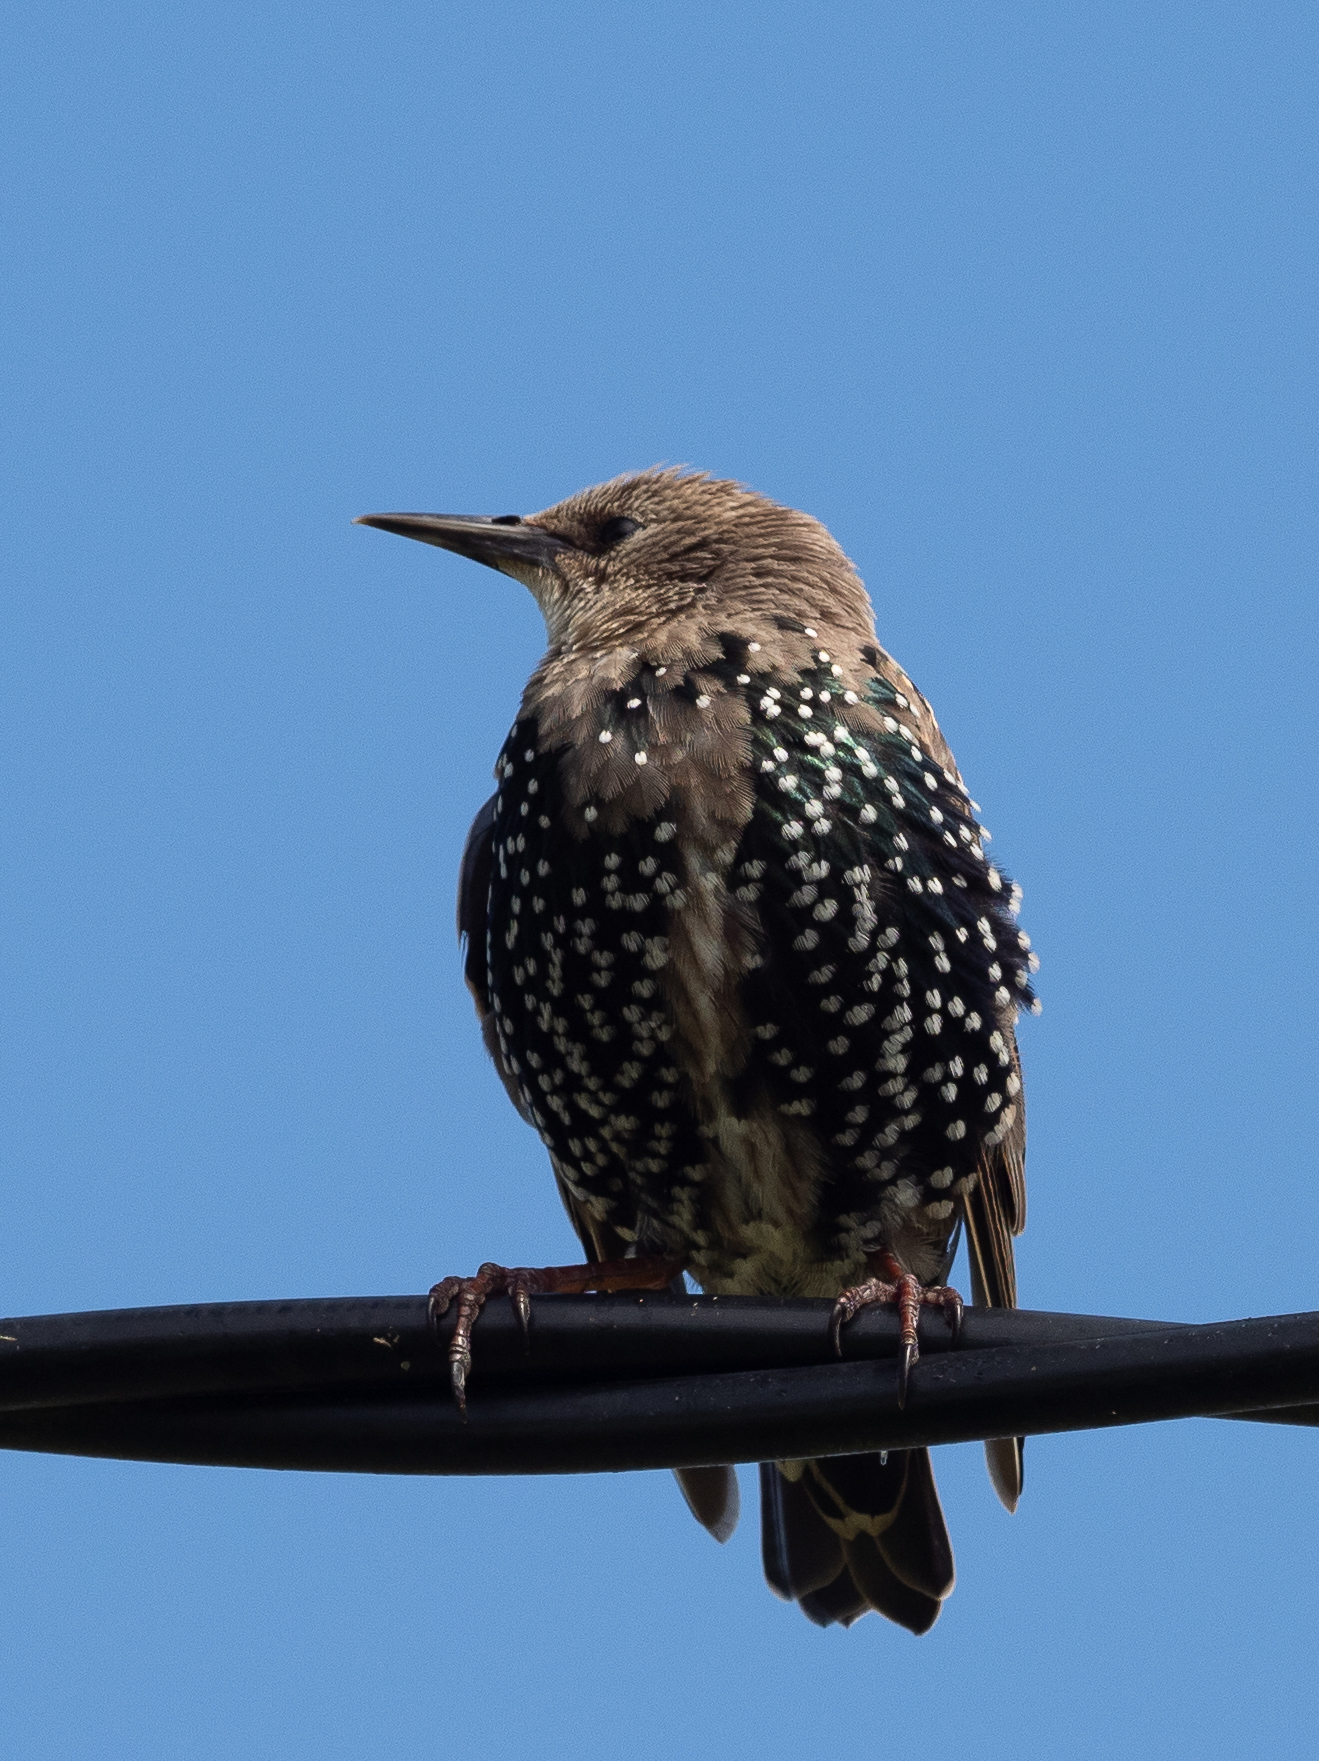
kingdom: Animalia
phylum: Chordata
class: Aves
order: Passeriformes
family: Sturnidae
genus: Sturnus
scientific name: Sturnus vulgaris
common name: Common starling
